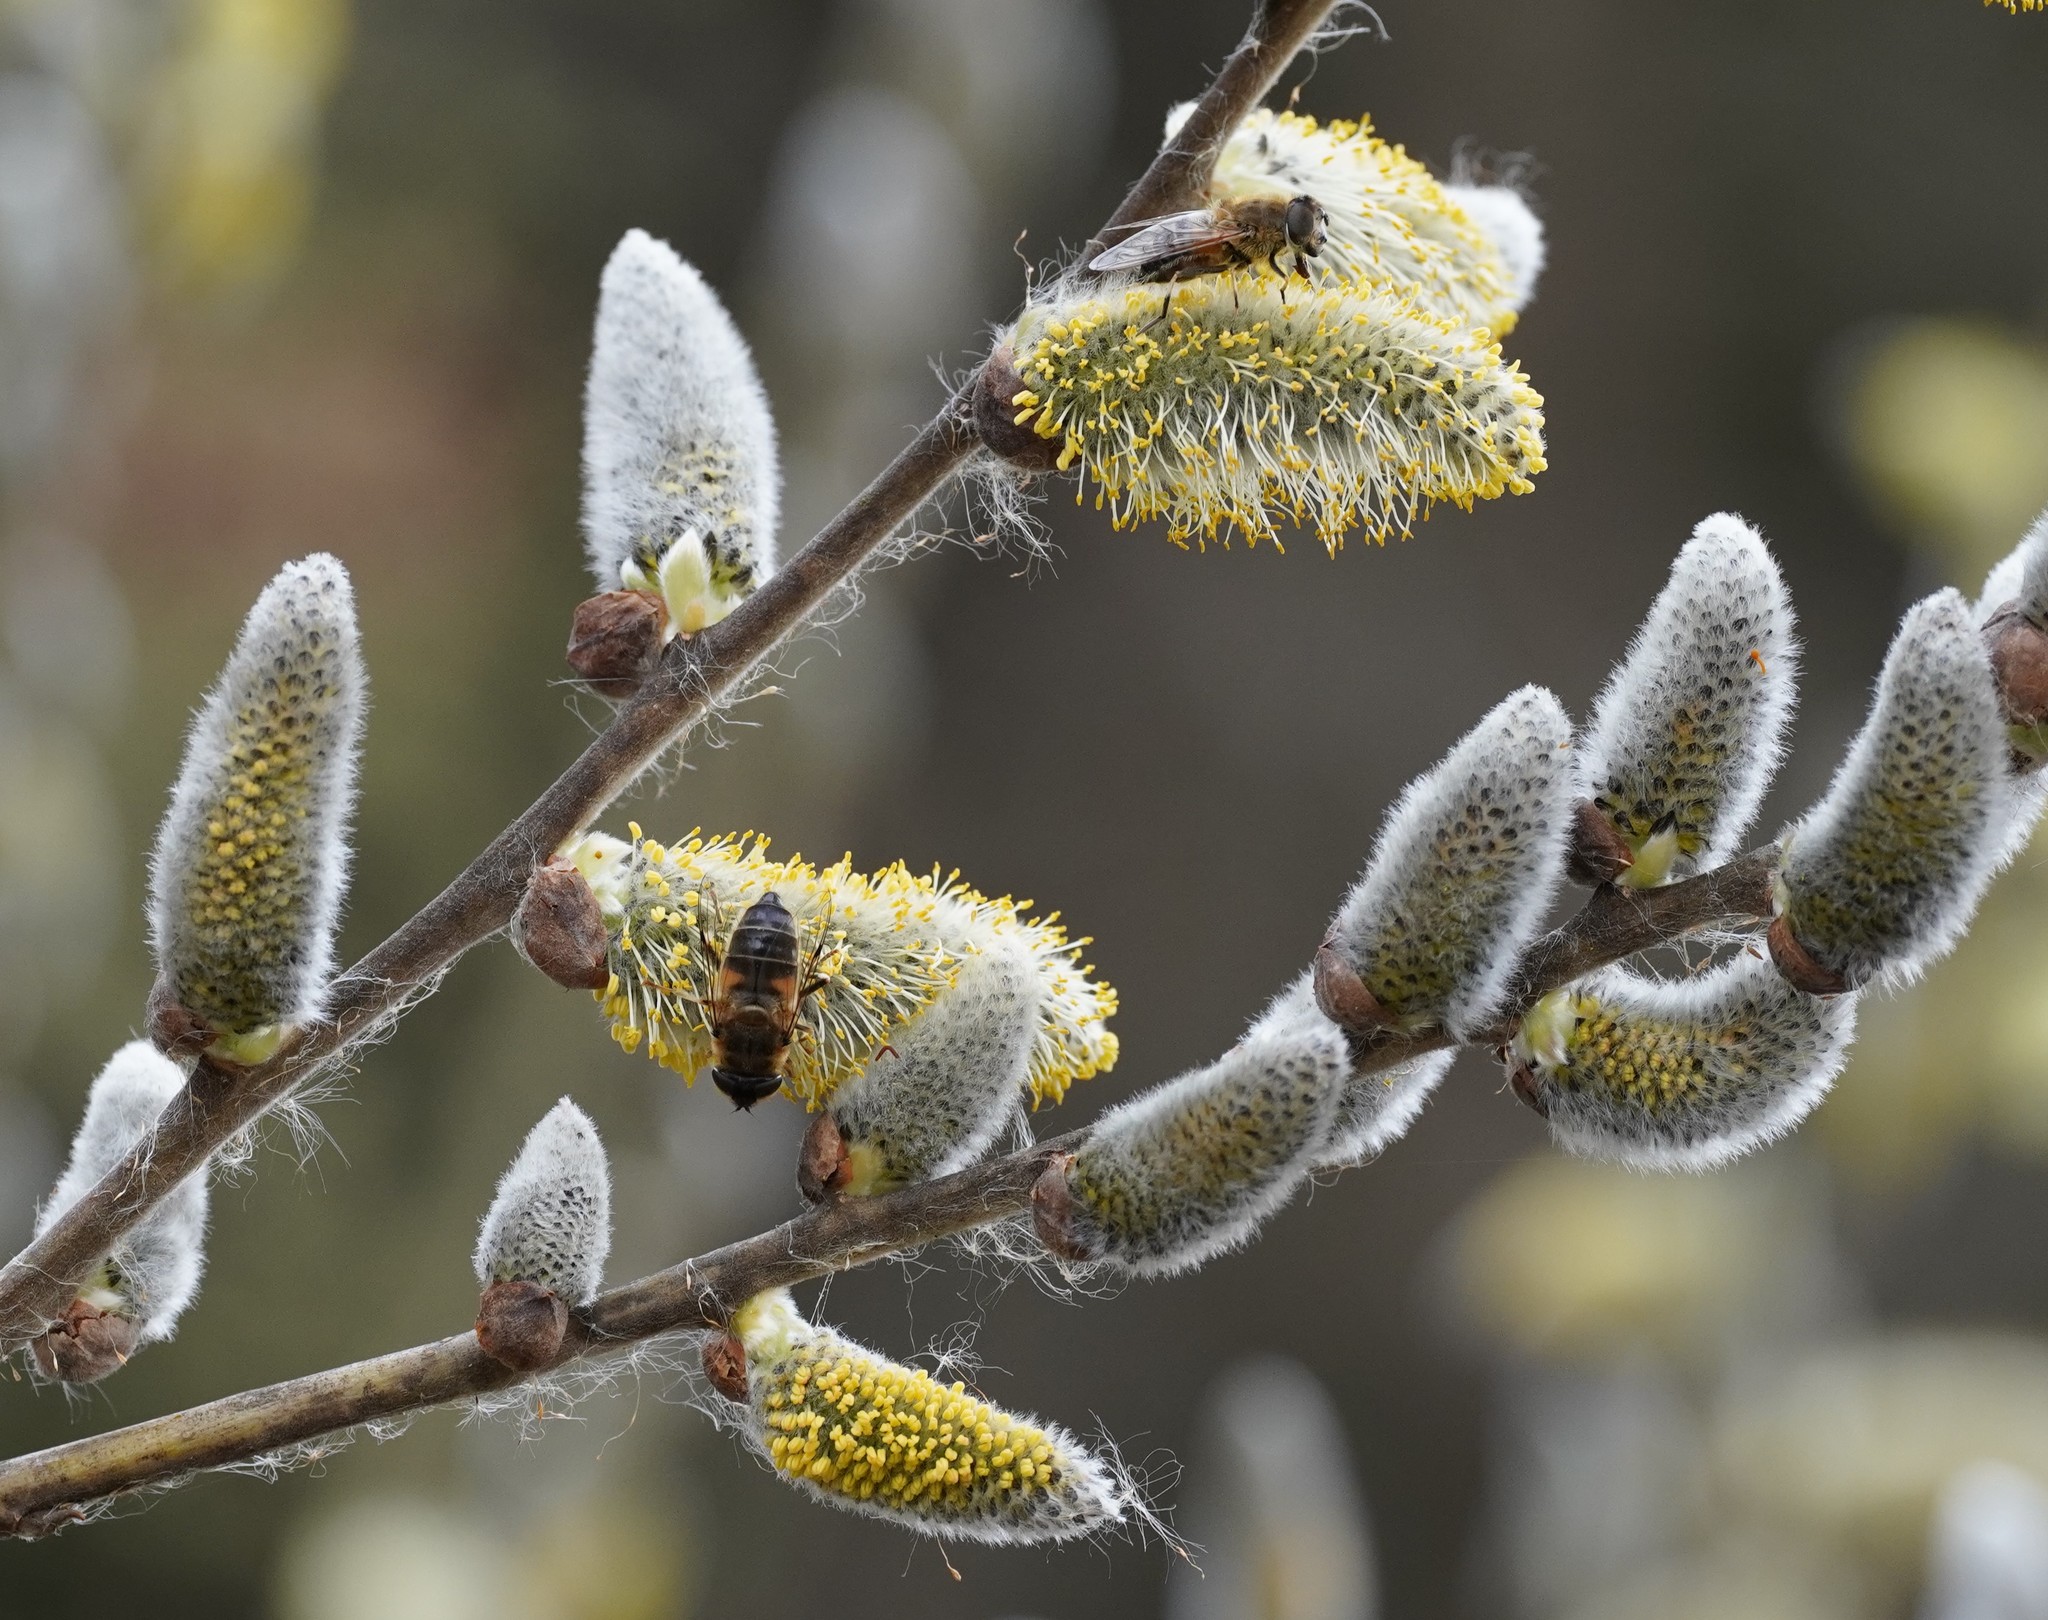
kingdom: Animalia
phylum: Arthropoda
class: Insecta
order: Diptera
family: Syrphidae
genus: Eristalis
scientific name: Eristalis pertinax
